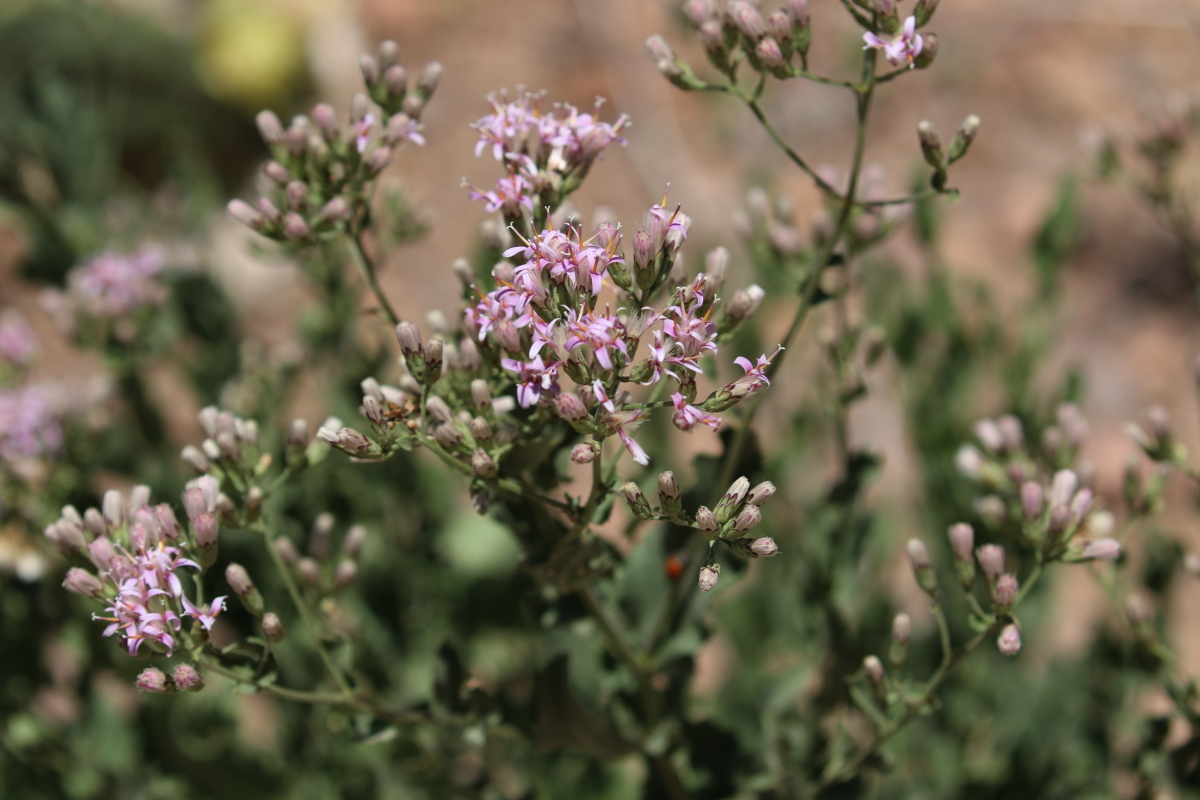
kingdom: Plantae
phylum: Tracheophyta
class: Magnoliopsida
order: Asterales
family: Asteraceae
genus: Acourtia
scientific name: Acourtia wrightii
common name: Brownfoot
